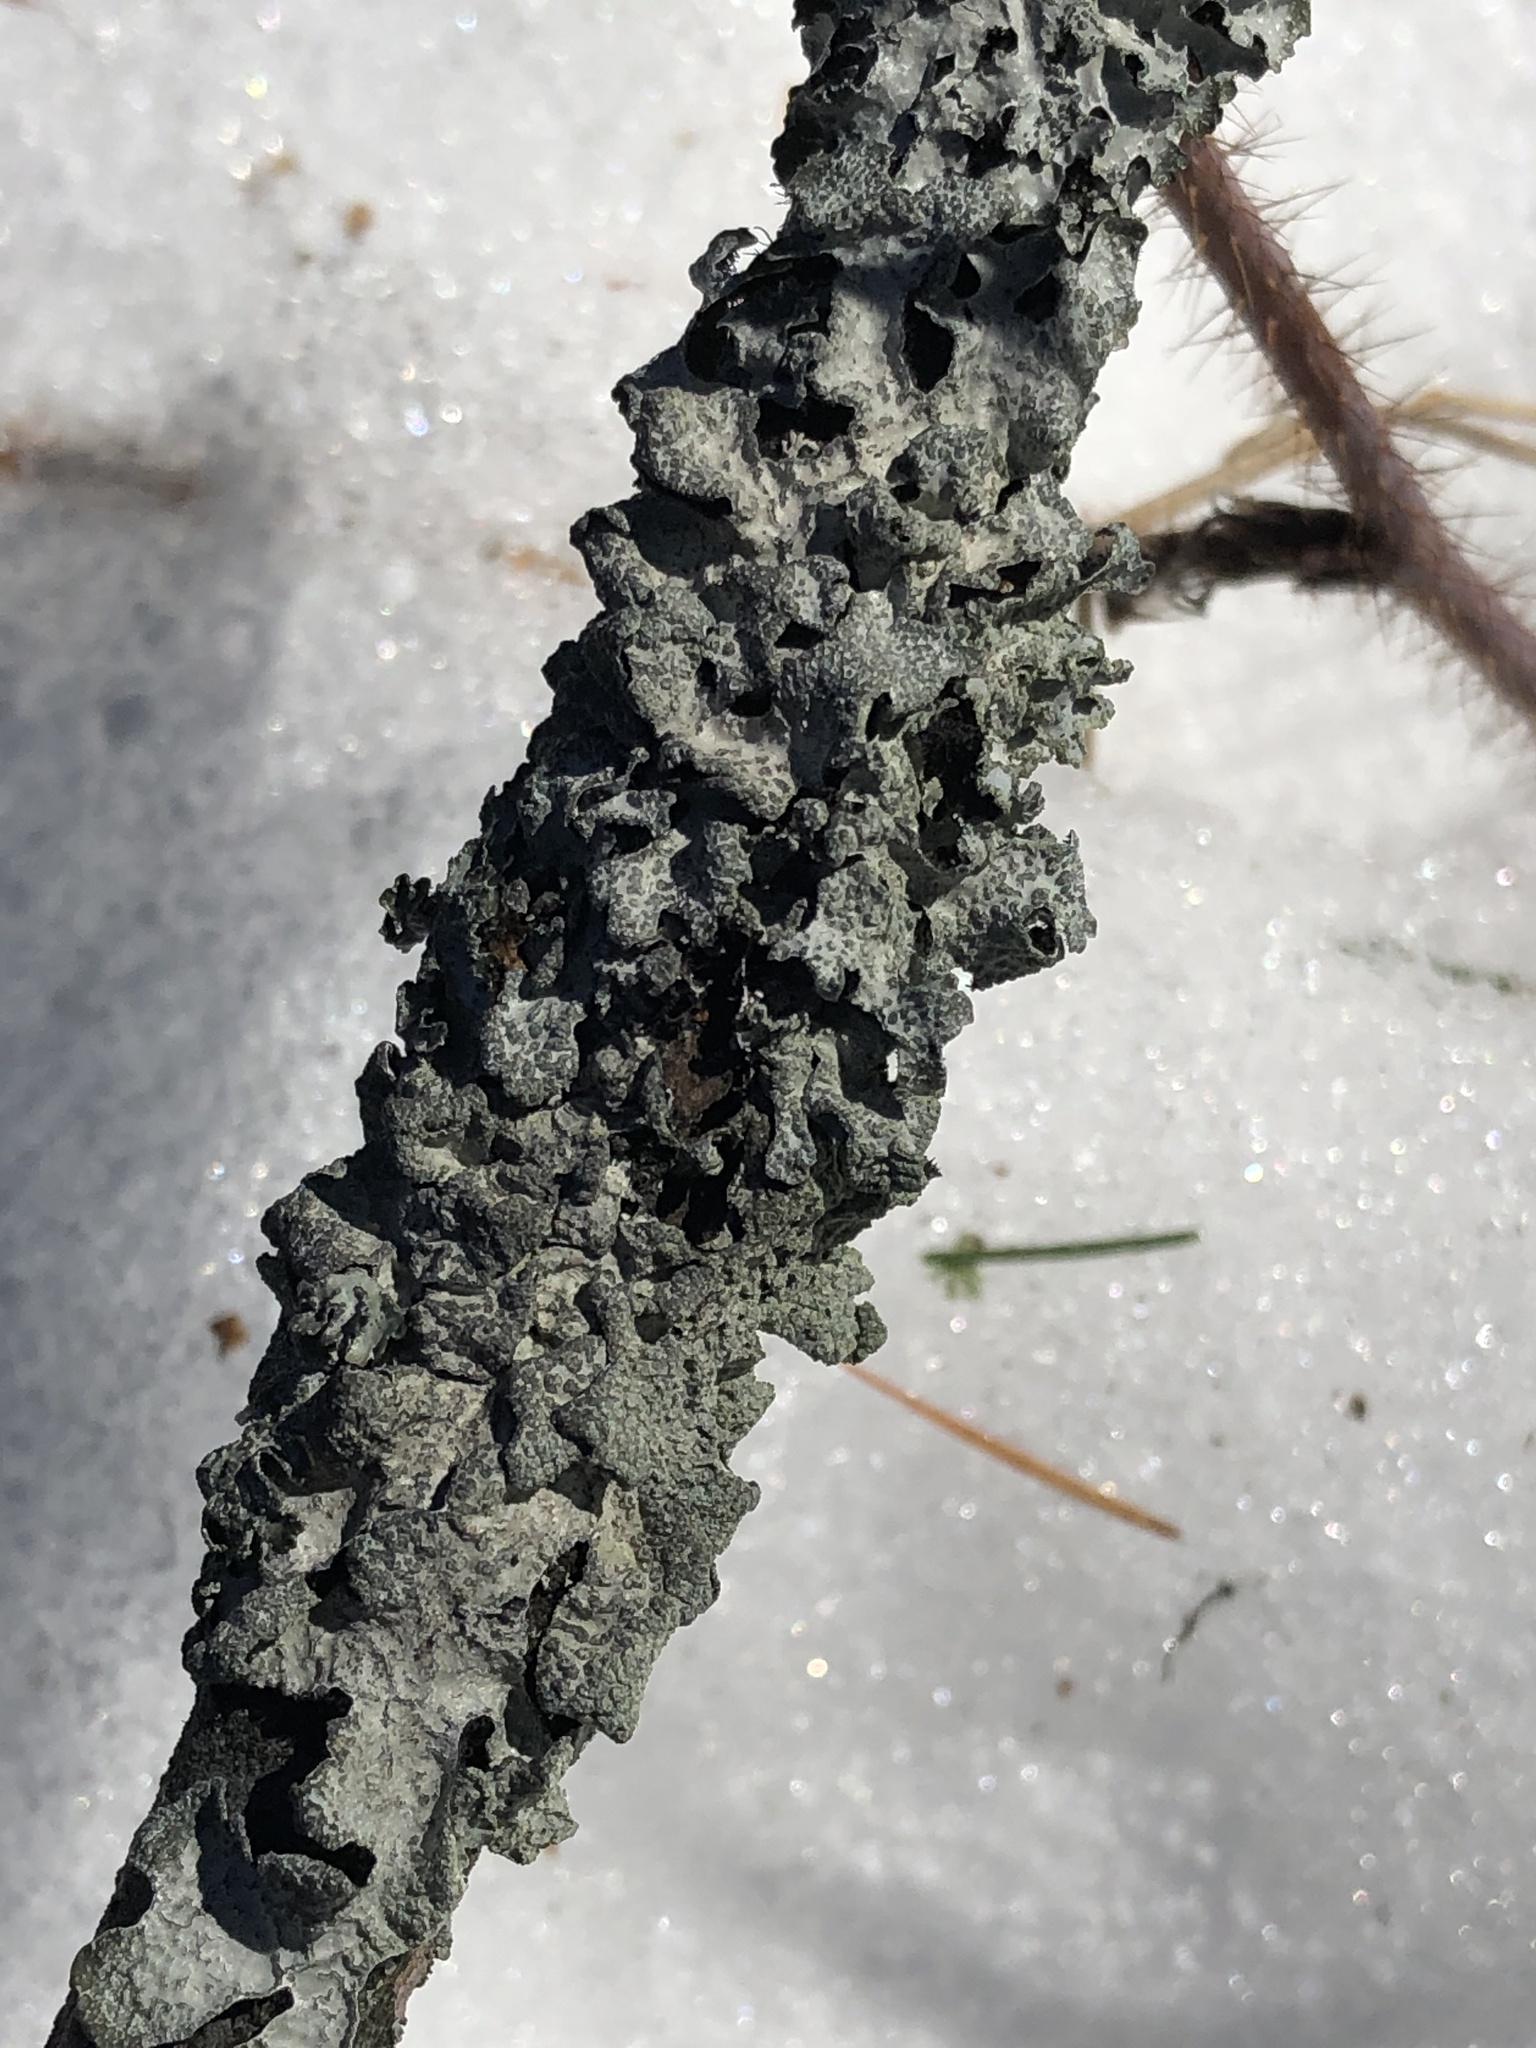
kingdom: Fungi
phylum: Ascomycota
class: Lecanoromycetes
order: Lecanorales
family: Parmeliaceae
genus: Parmelia
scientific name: Parmelia sulcata
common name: Netted shield lichen
